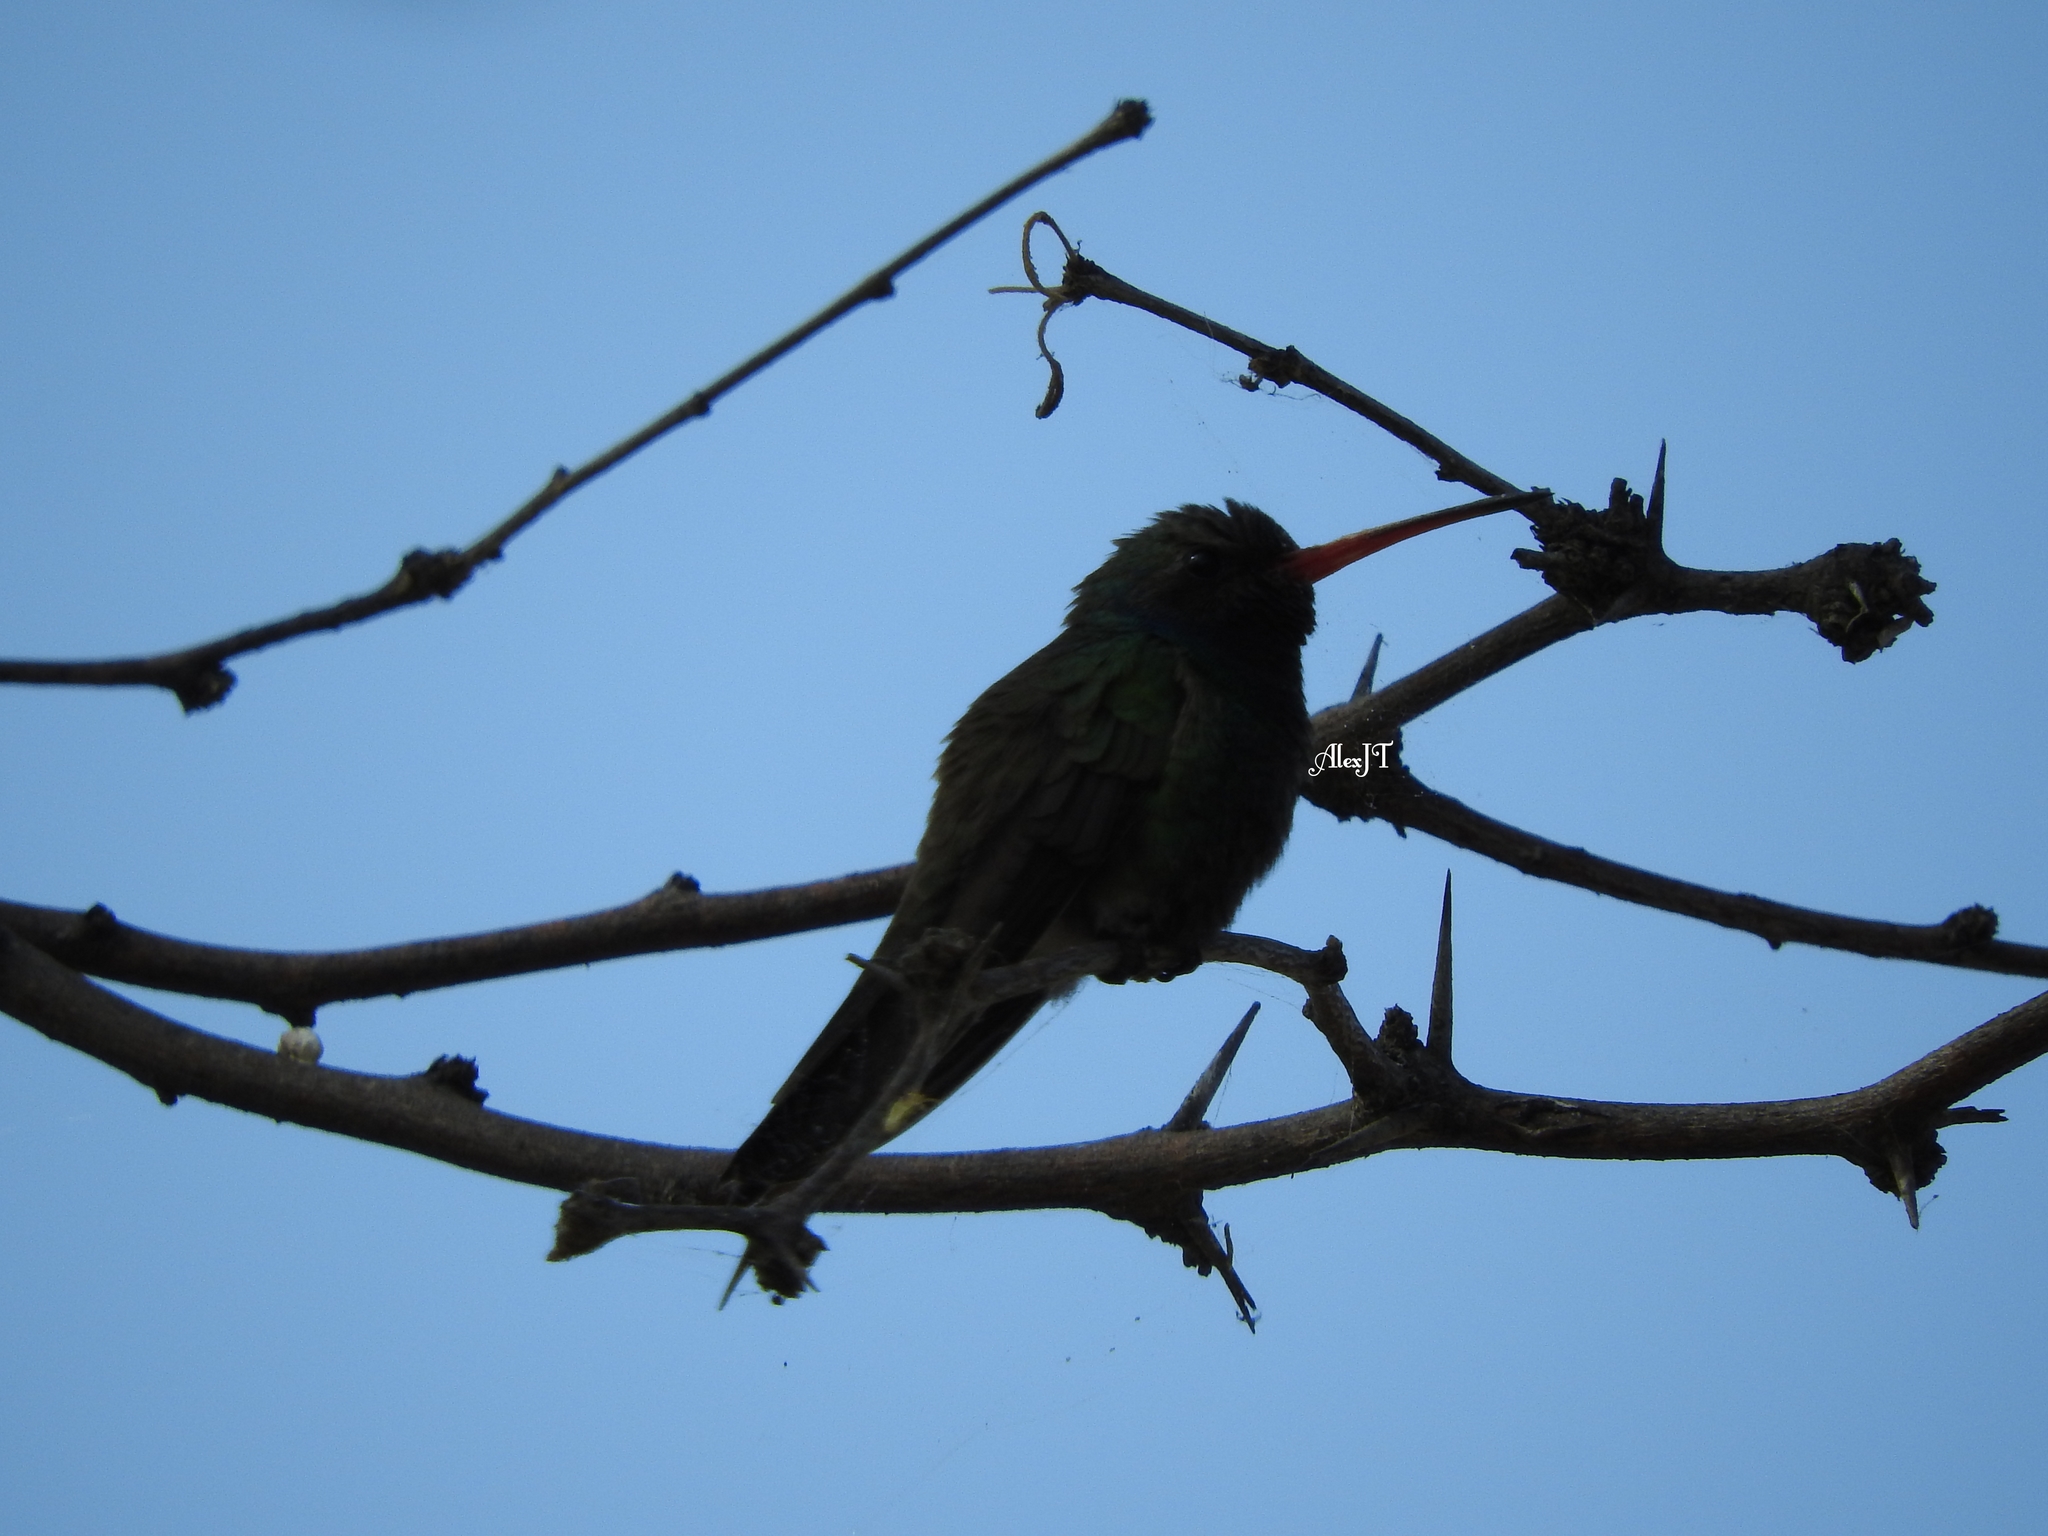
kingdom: Animalia
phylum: Chordata
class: Aves
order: Apodiformes
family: Trochilidae
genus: Cynanthus
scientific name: Cynanthus latirostris
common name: Broad-billed hummingbird
